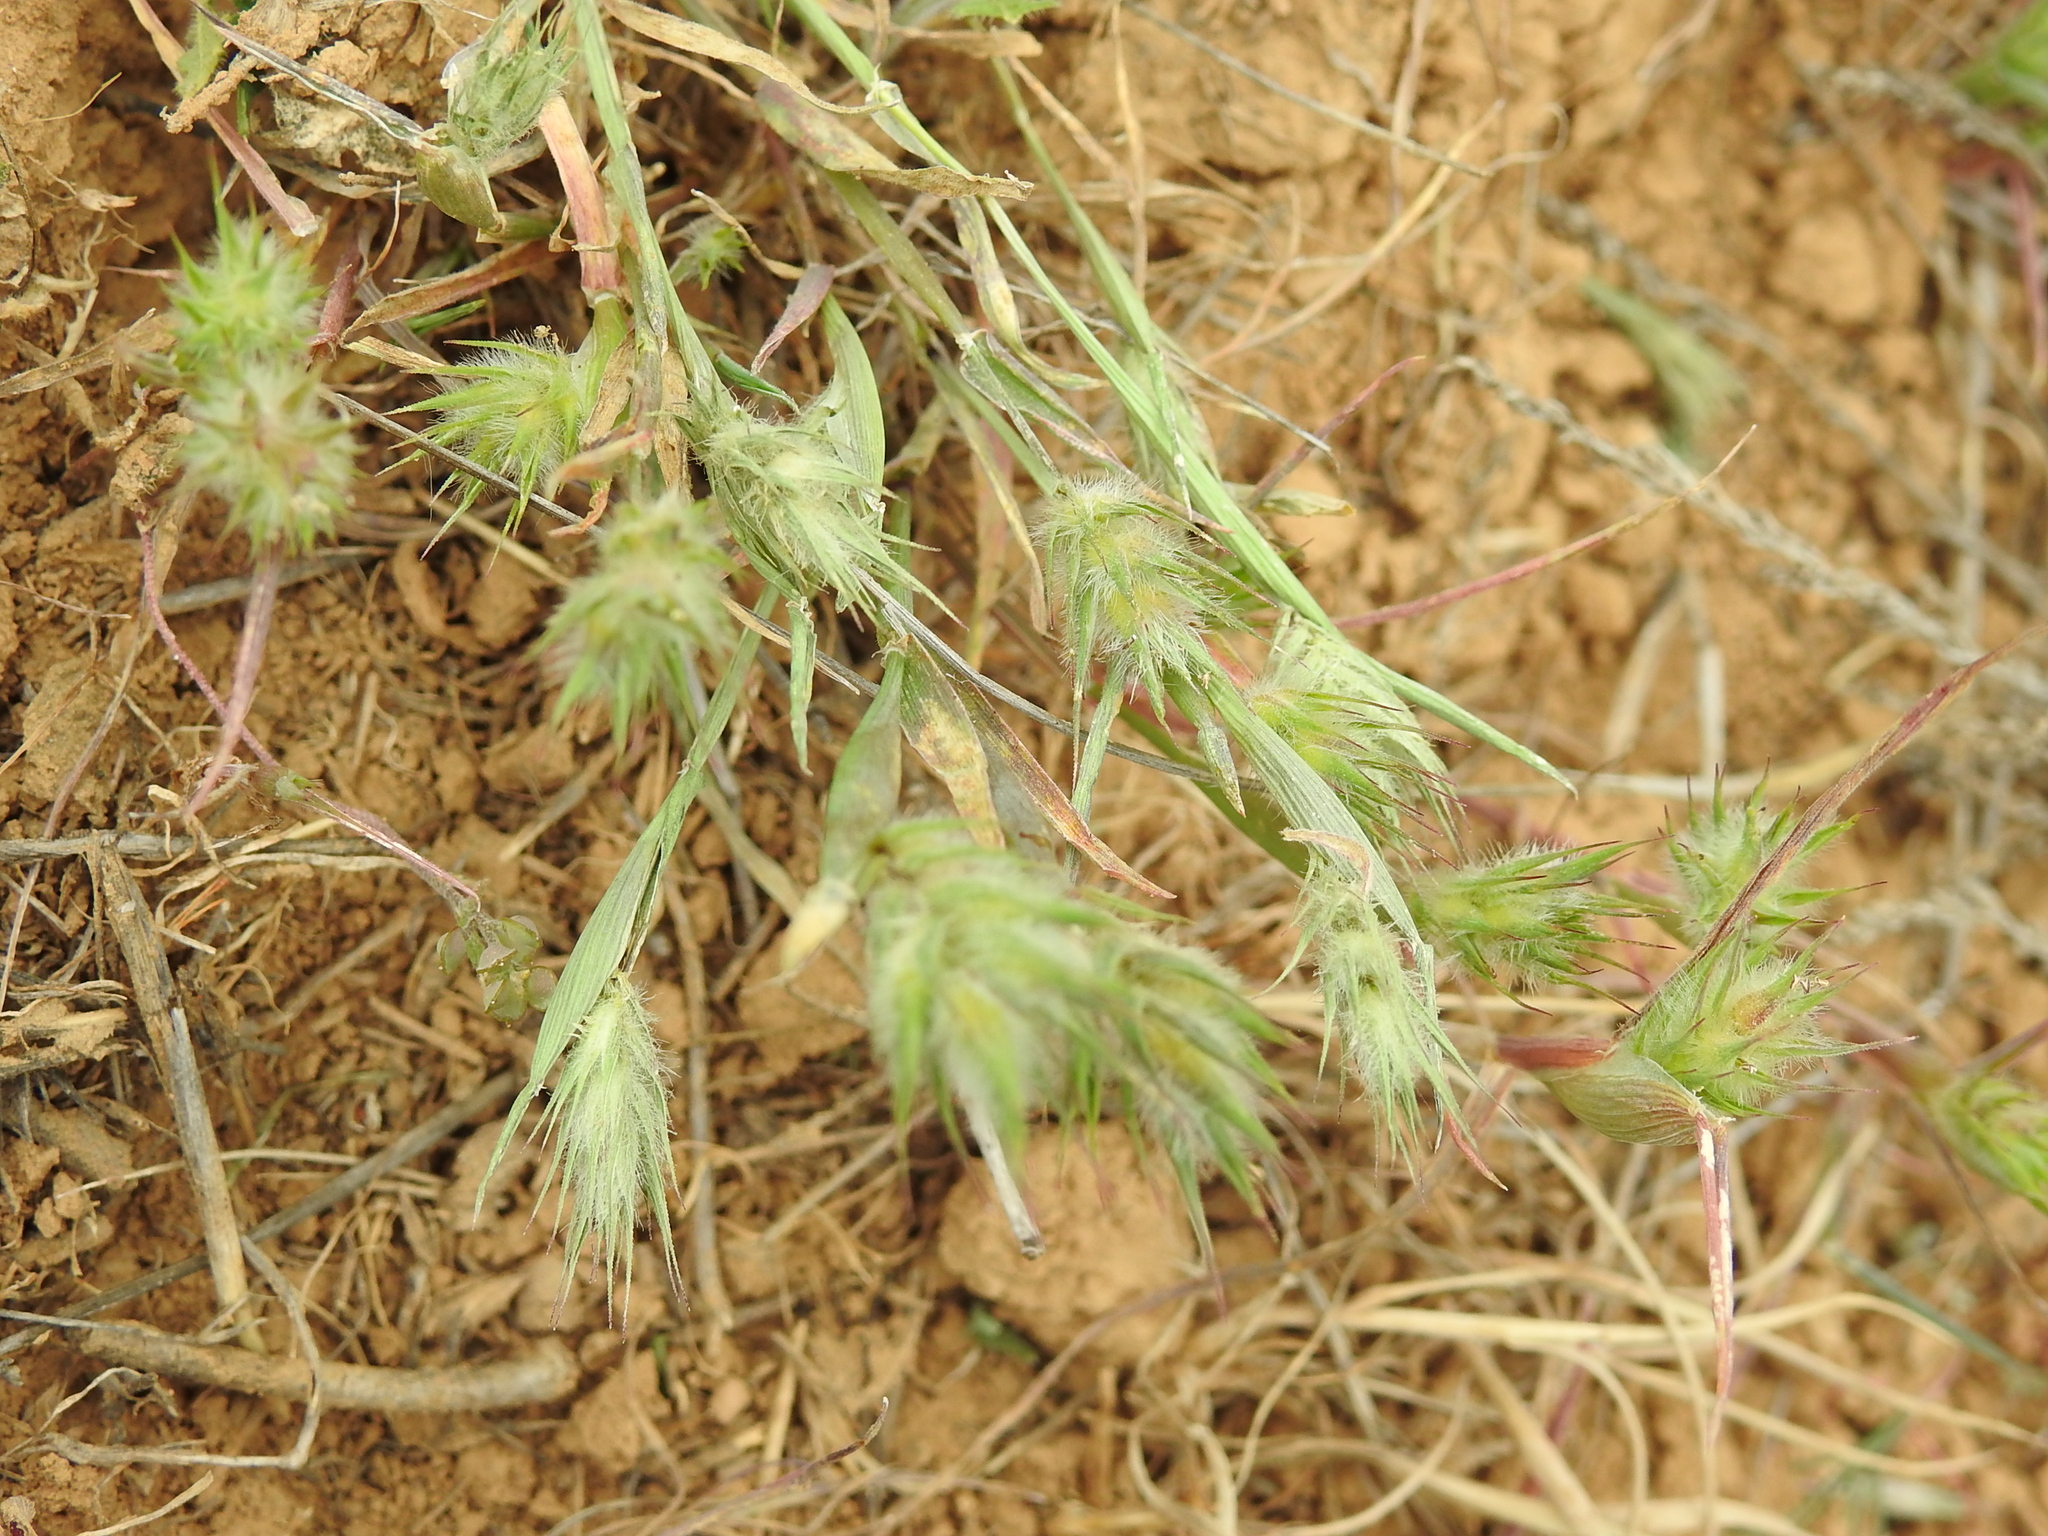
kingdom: Plantae
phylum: Tracheophyta
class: Liliopsida
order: Poales
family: Poaceae
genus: Eremopyrum
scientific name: Eremopyrum orientale
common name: Oriental false wheatgrass
